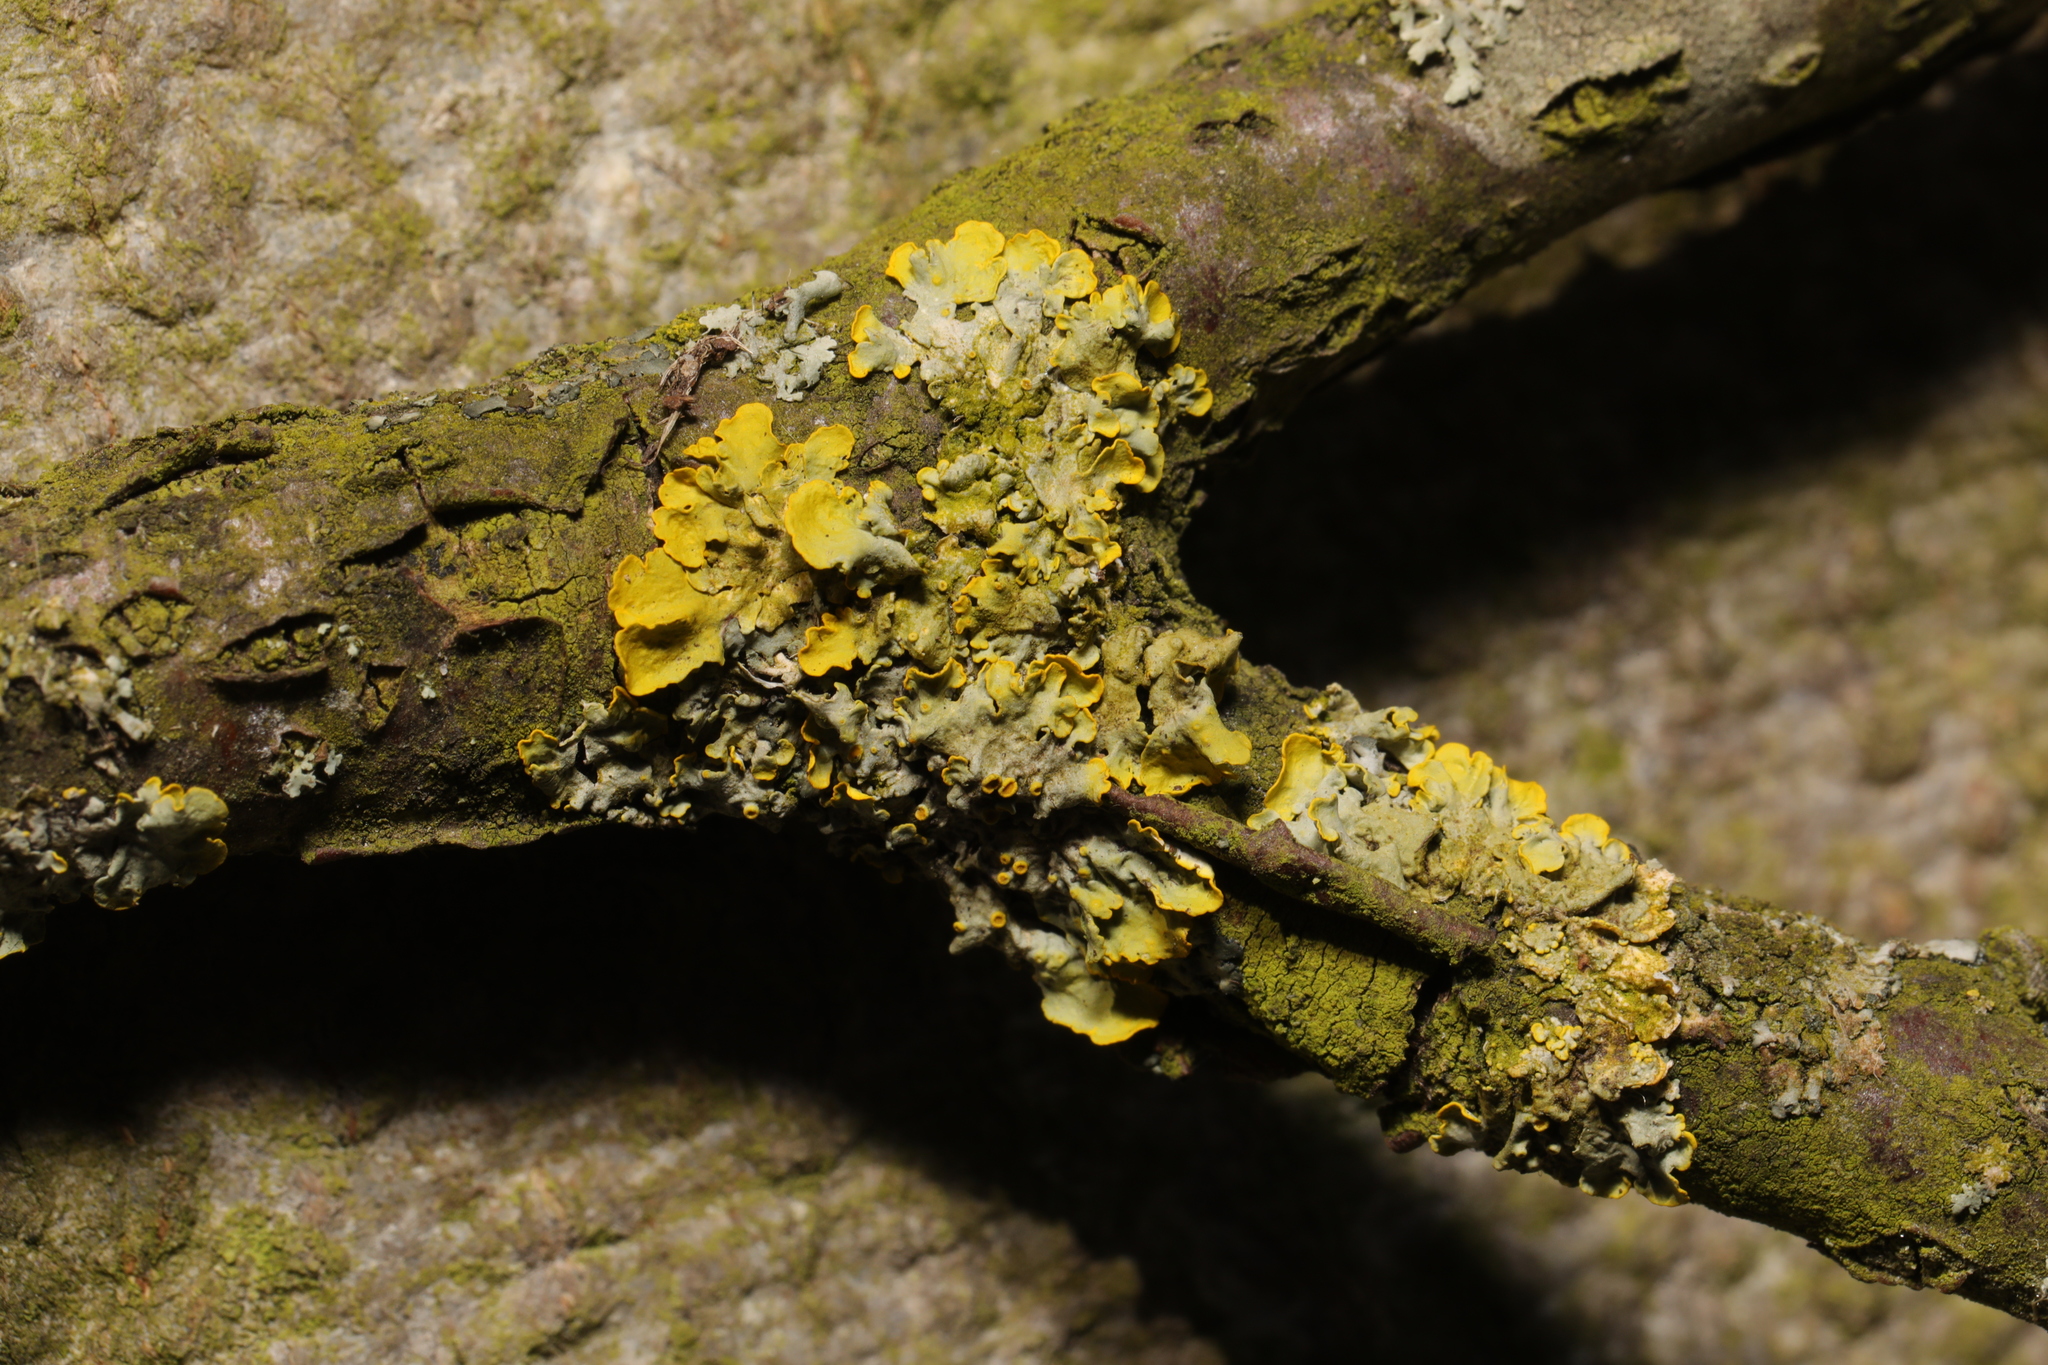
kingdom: Fungi
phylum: Ascomycota
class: Lecanoromycetes
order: Teloschistales
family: Teloschistaceae
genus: Xanthoria
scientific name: Xanthoria parietina
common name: Common orange lichen
